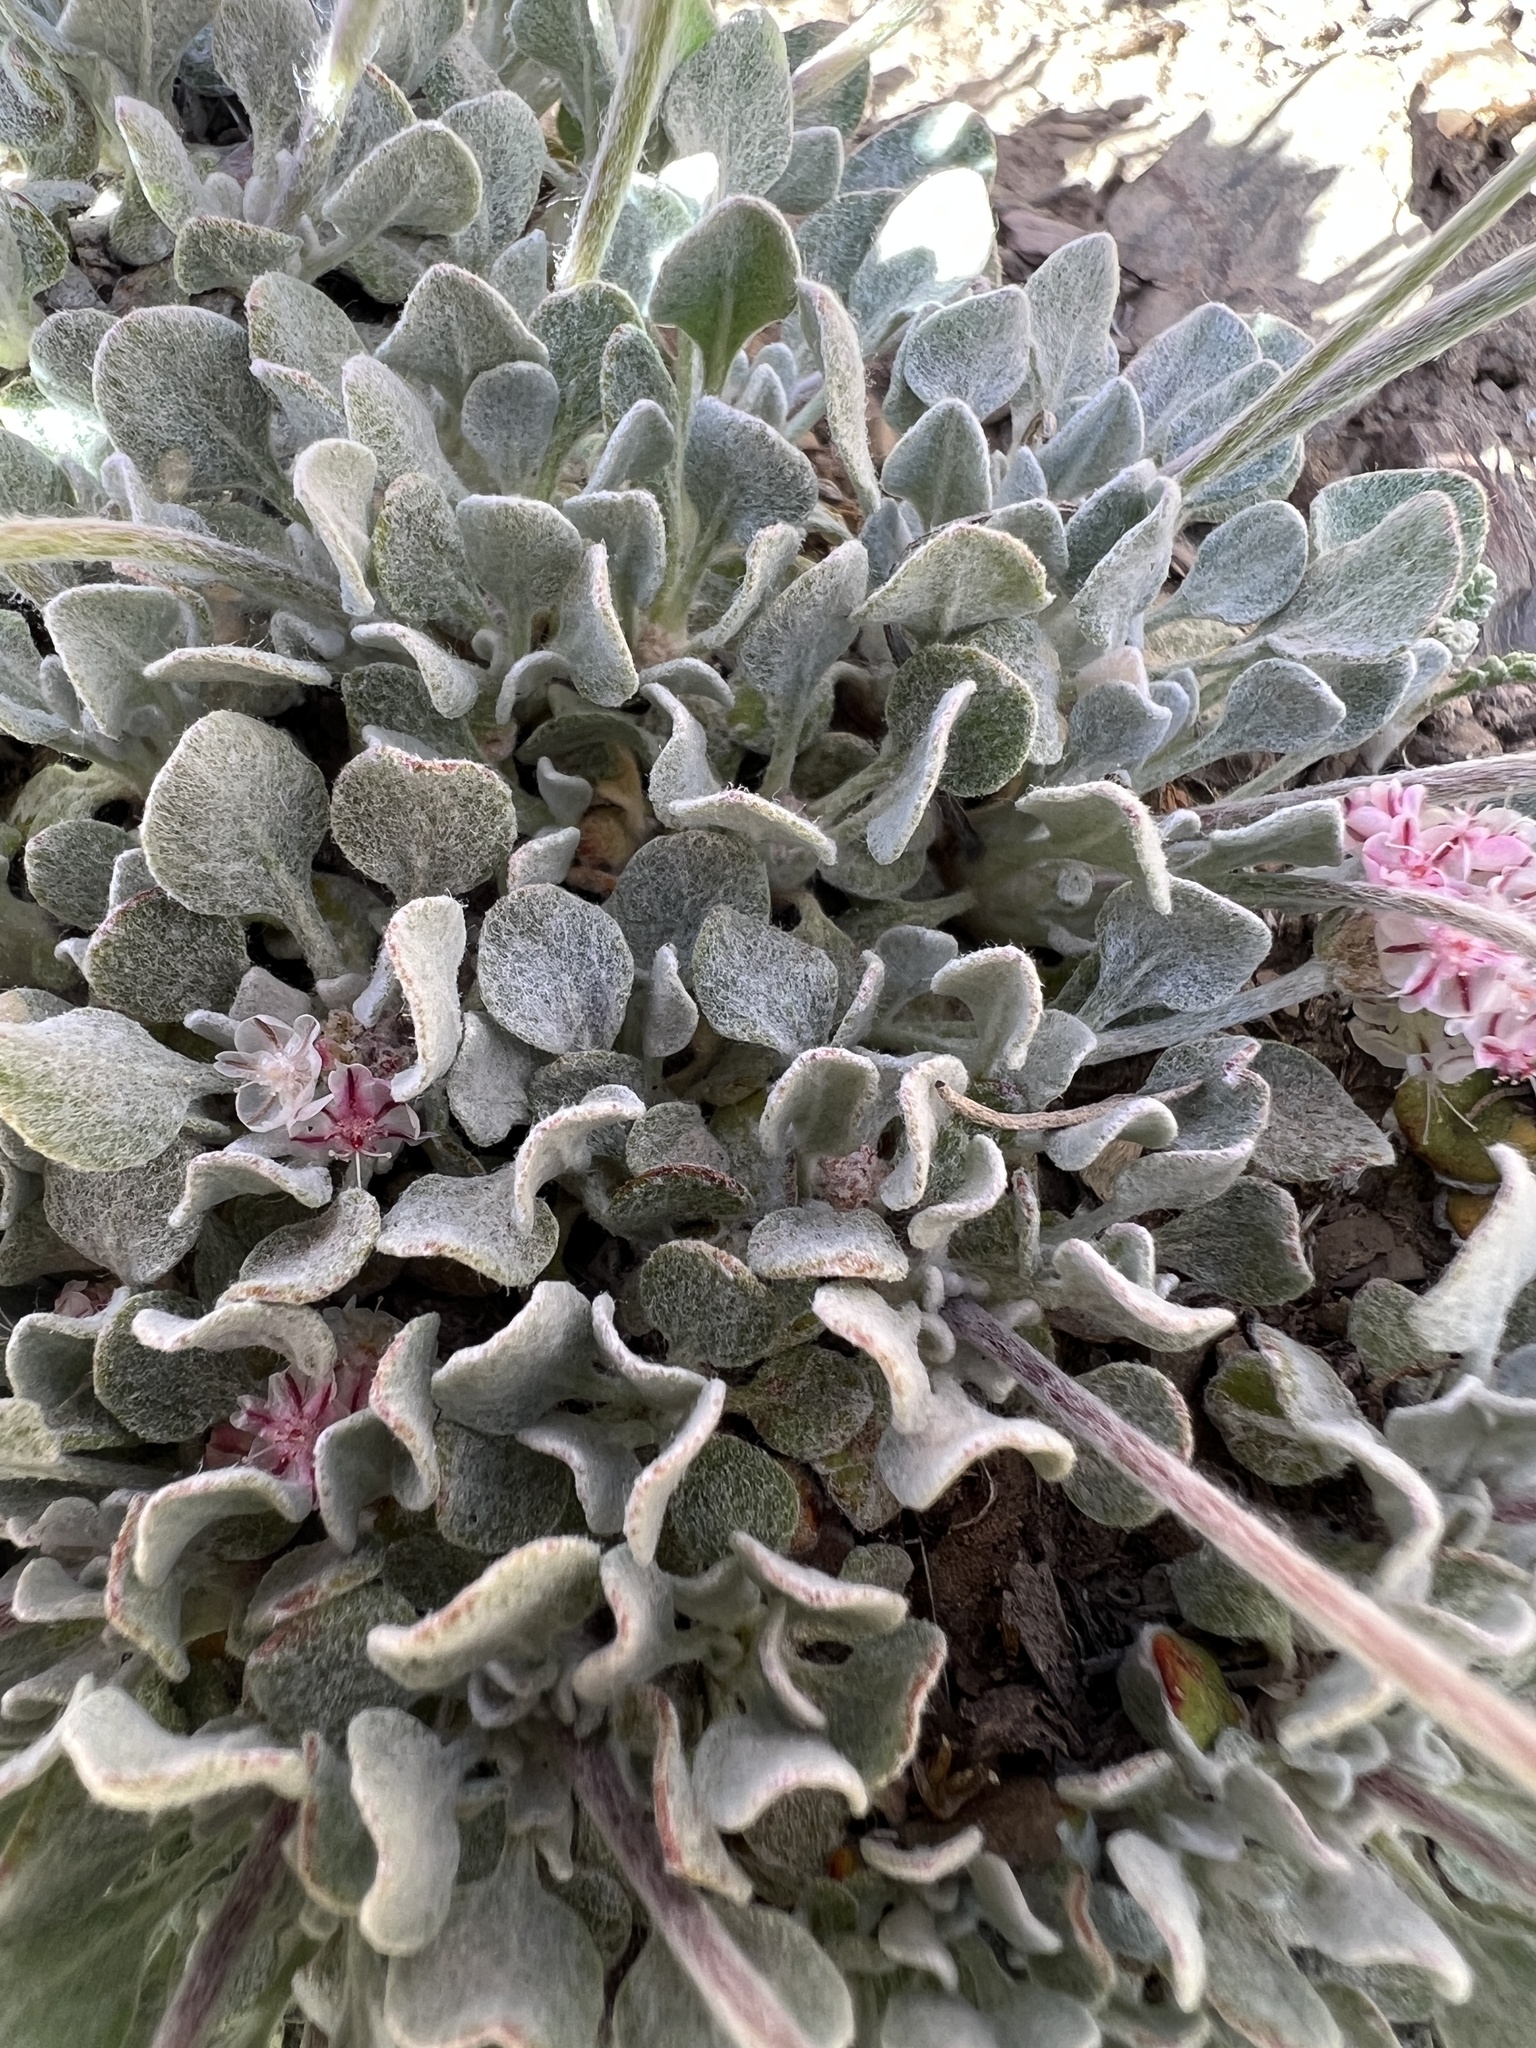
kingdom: Plantae
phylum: Tracheophyta
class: Magnoliopsida
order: Caryophyllales
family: Polygonaceae
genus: Eriogonum
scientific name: Eriogonum ovalifolium
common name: Cushion buckwheat
